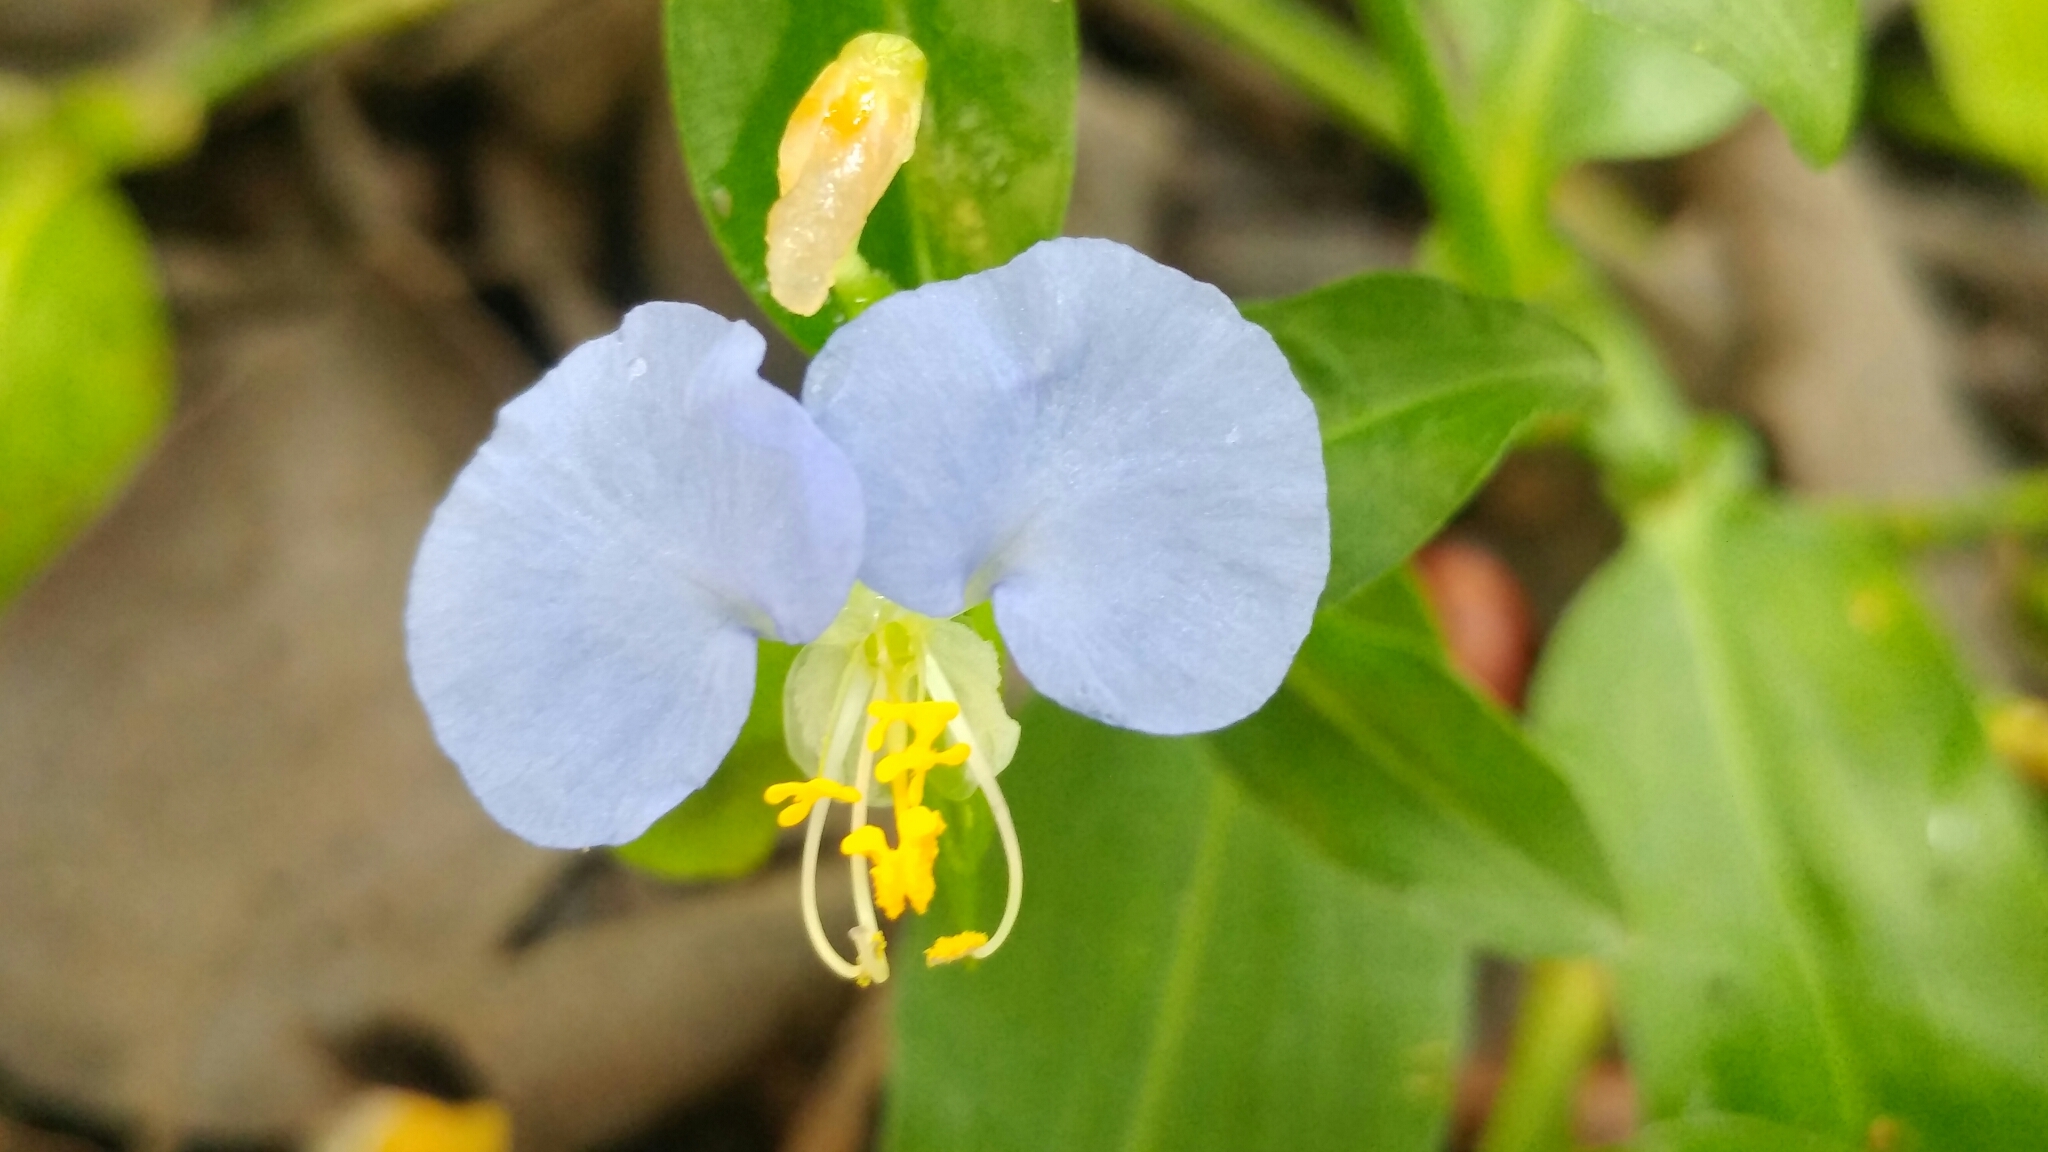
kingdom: Plantae
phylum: Tracheophyta
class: Liliopsida
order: Commelinales
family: Commelinaceae
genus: Commelina
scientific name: Commelina erecta
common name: Blousel blommetjie
